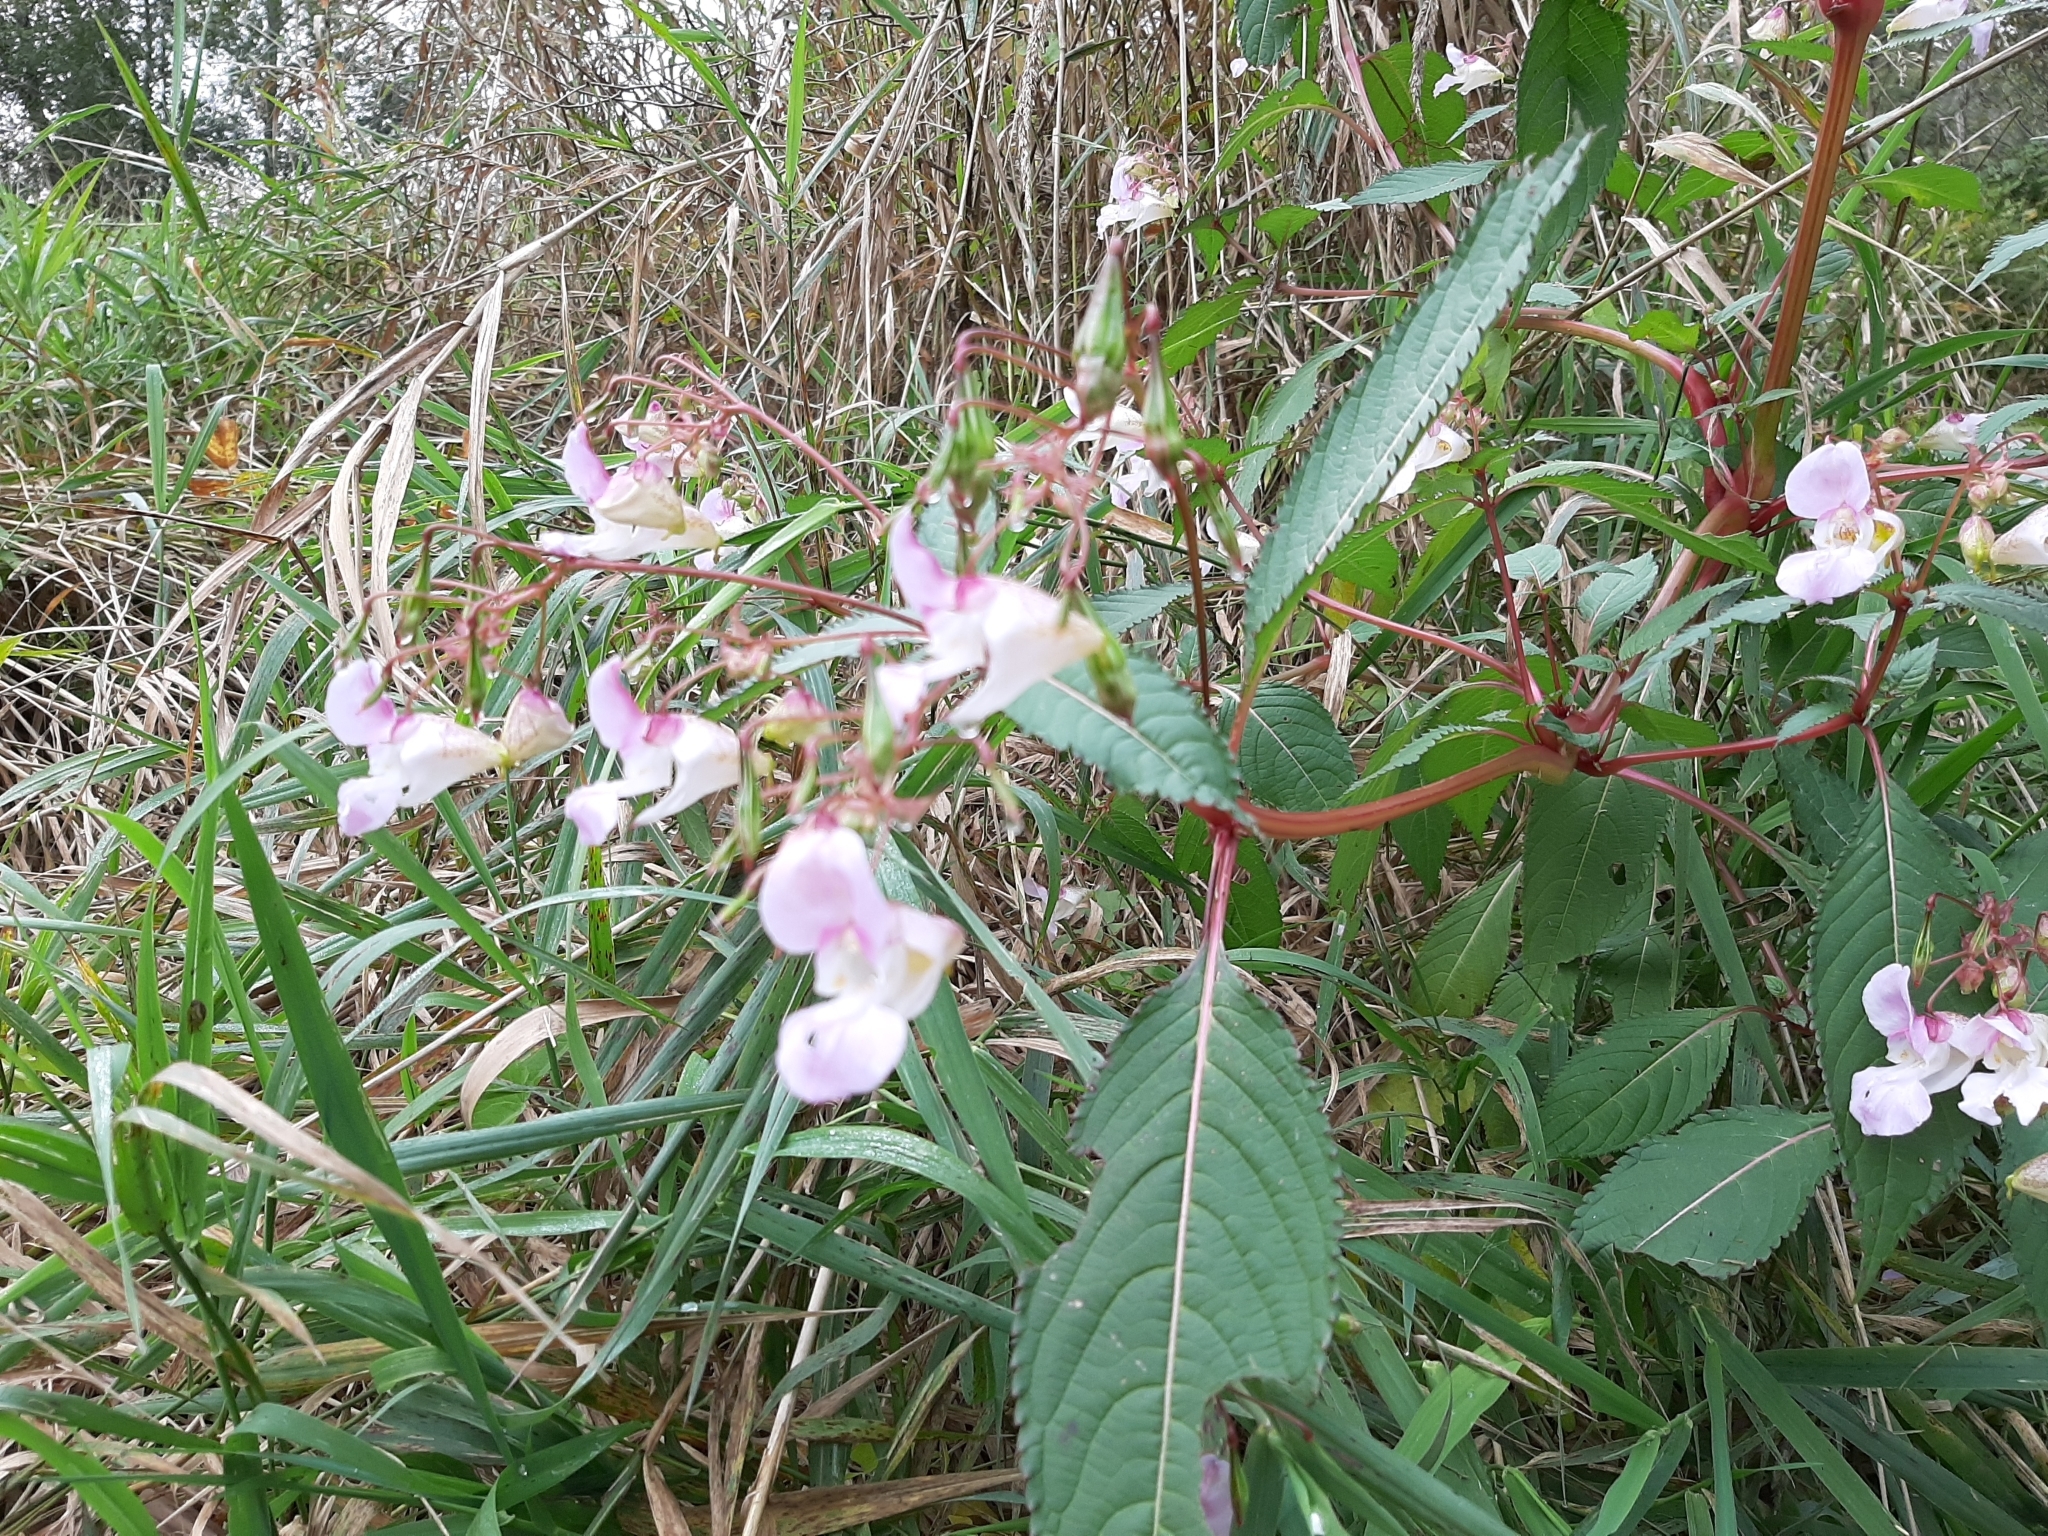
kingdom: Plantae
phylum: Tracheophyta
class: Magnoliopsida
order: Ericales
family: Balsaminaceae
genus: Impatiens
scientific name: Impatiens glandulifera
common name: Himalayan balsam
